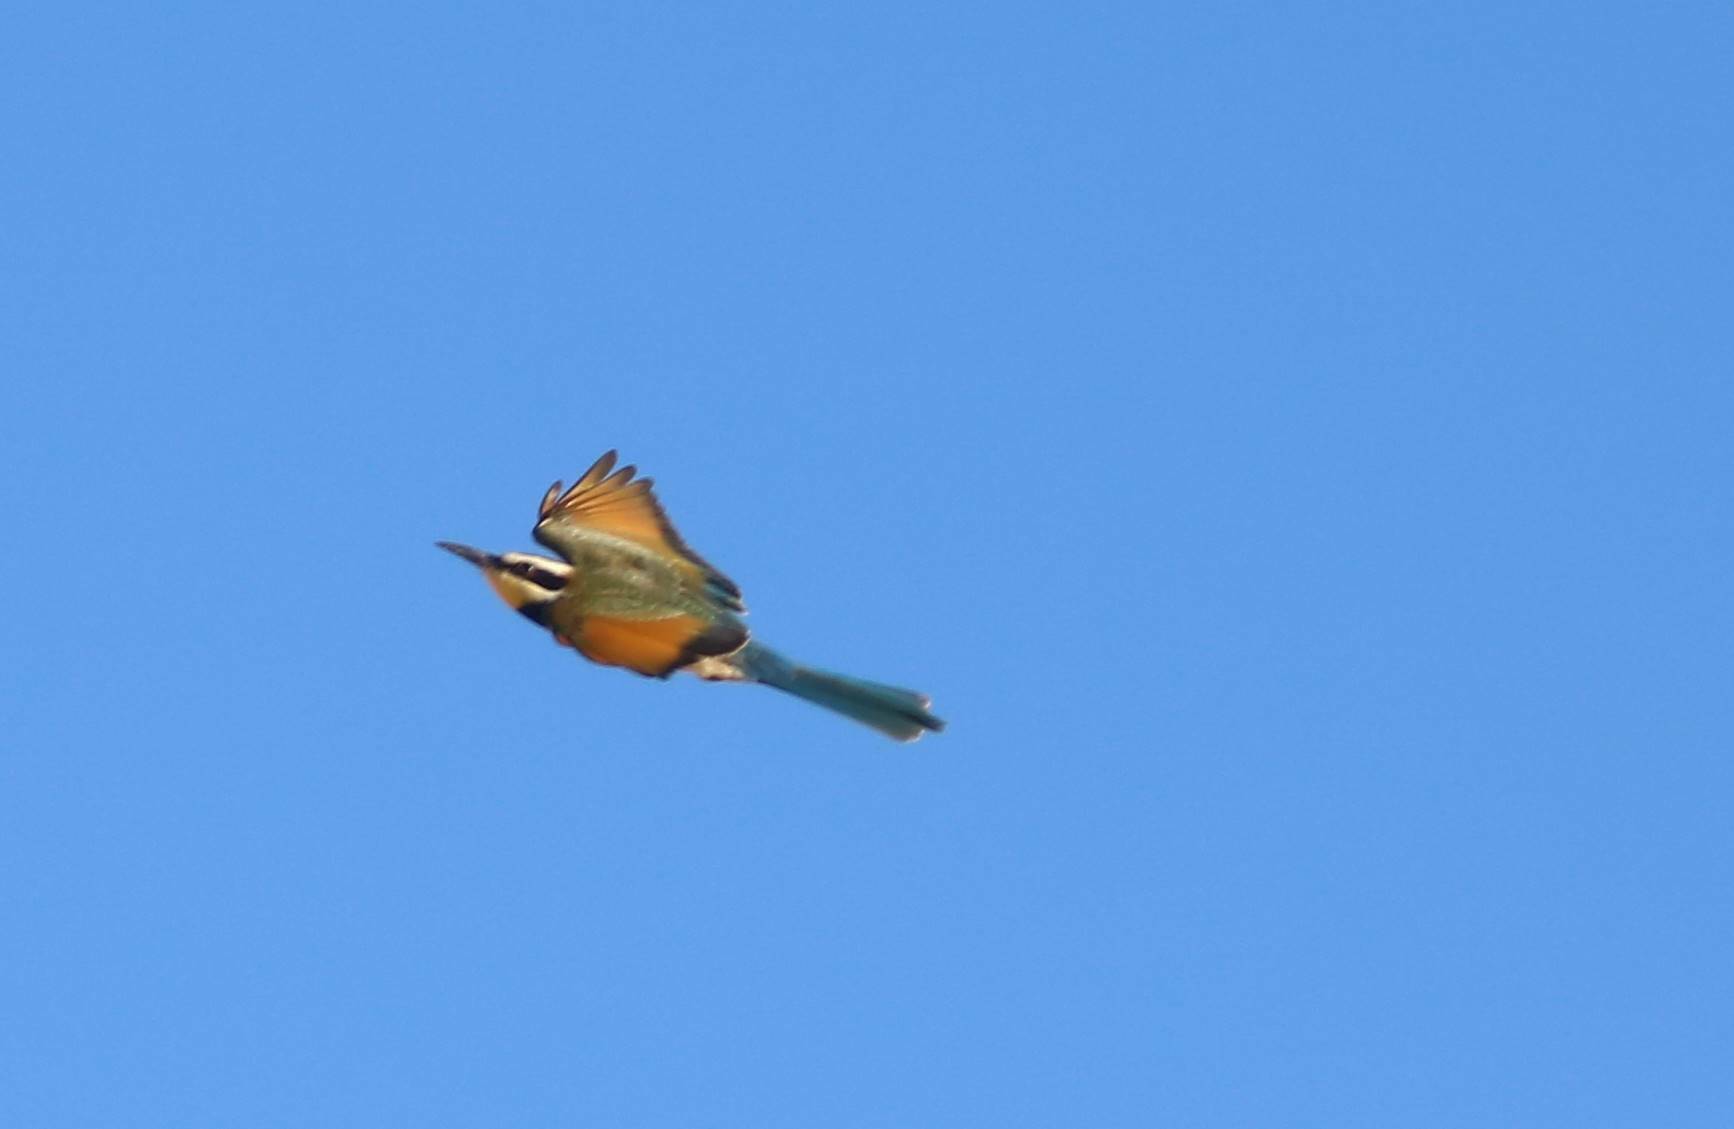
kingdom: Animalia
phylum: Chordata
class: Aves
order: Coraciiformes
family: Meropidae
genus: Merops
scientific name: Merops albicollis
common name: White-throated bee-eater
